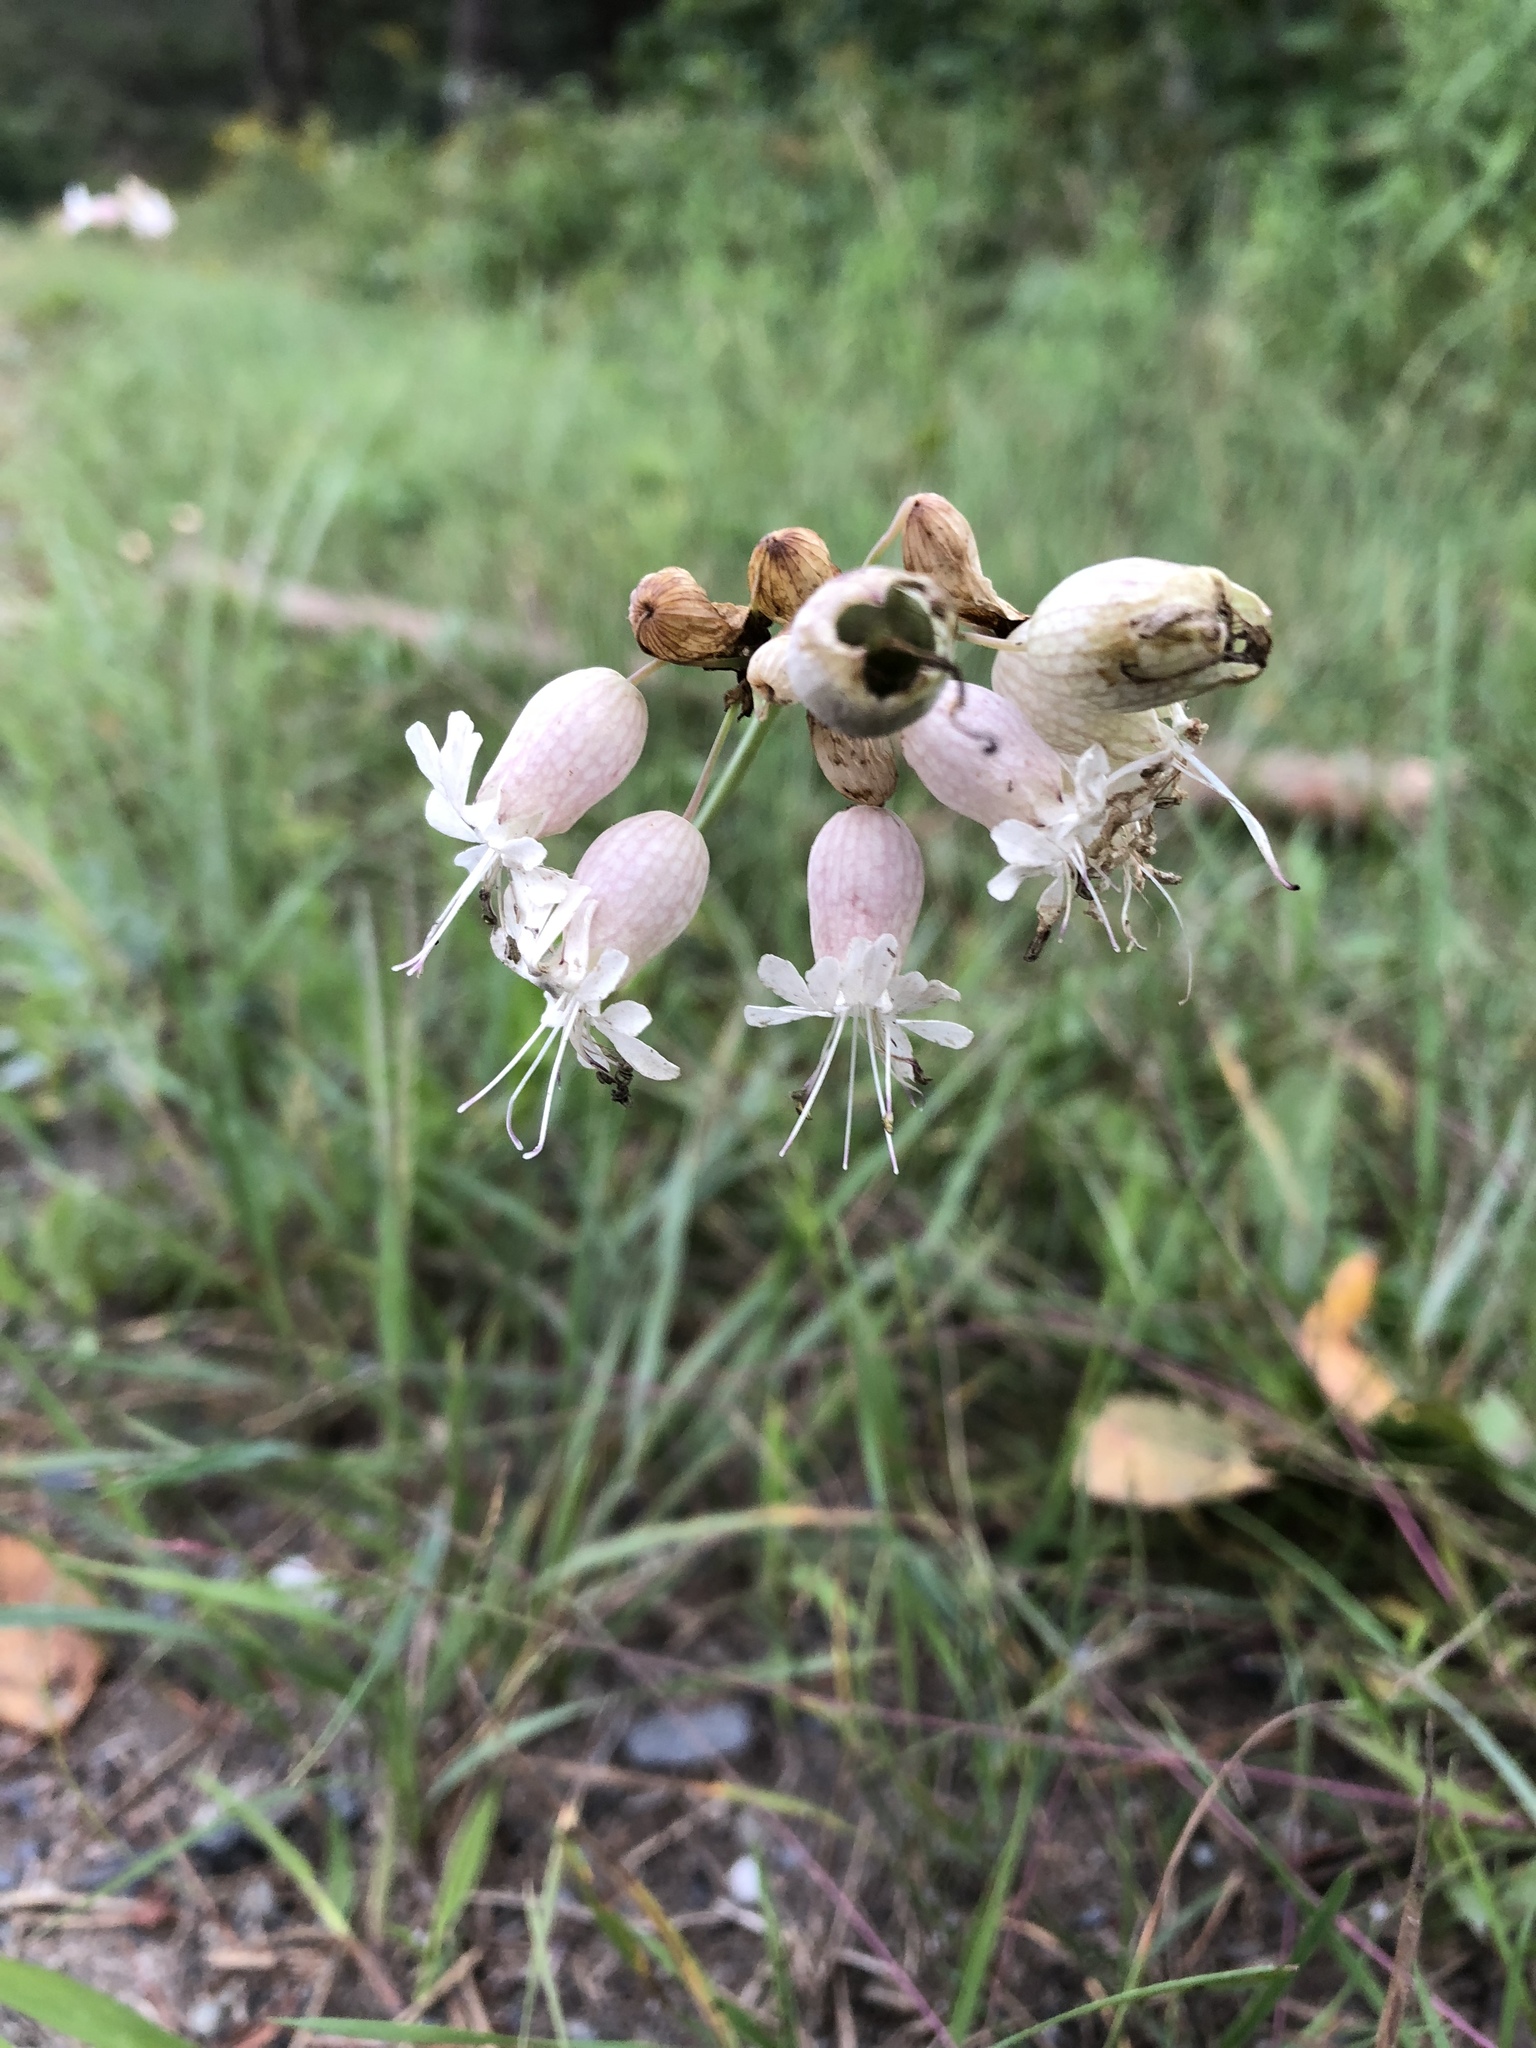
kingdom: Plantae
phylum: Tracheophyta
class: Magnoliopsida
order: Caryophyllales
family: Caryophyllaceae
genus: Silene
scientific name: Silene vulgaris
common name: Bladder campion
